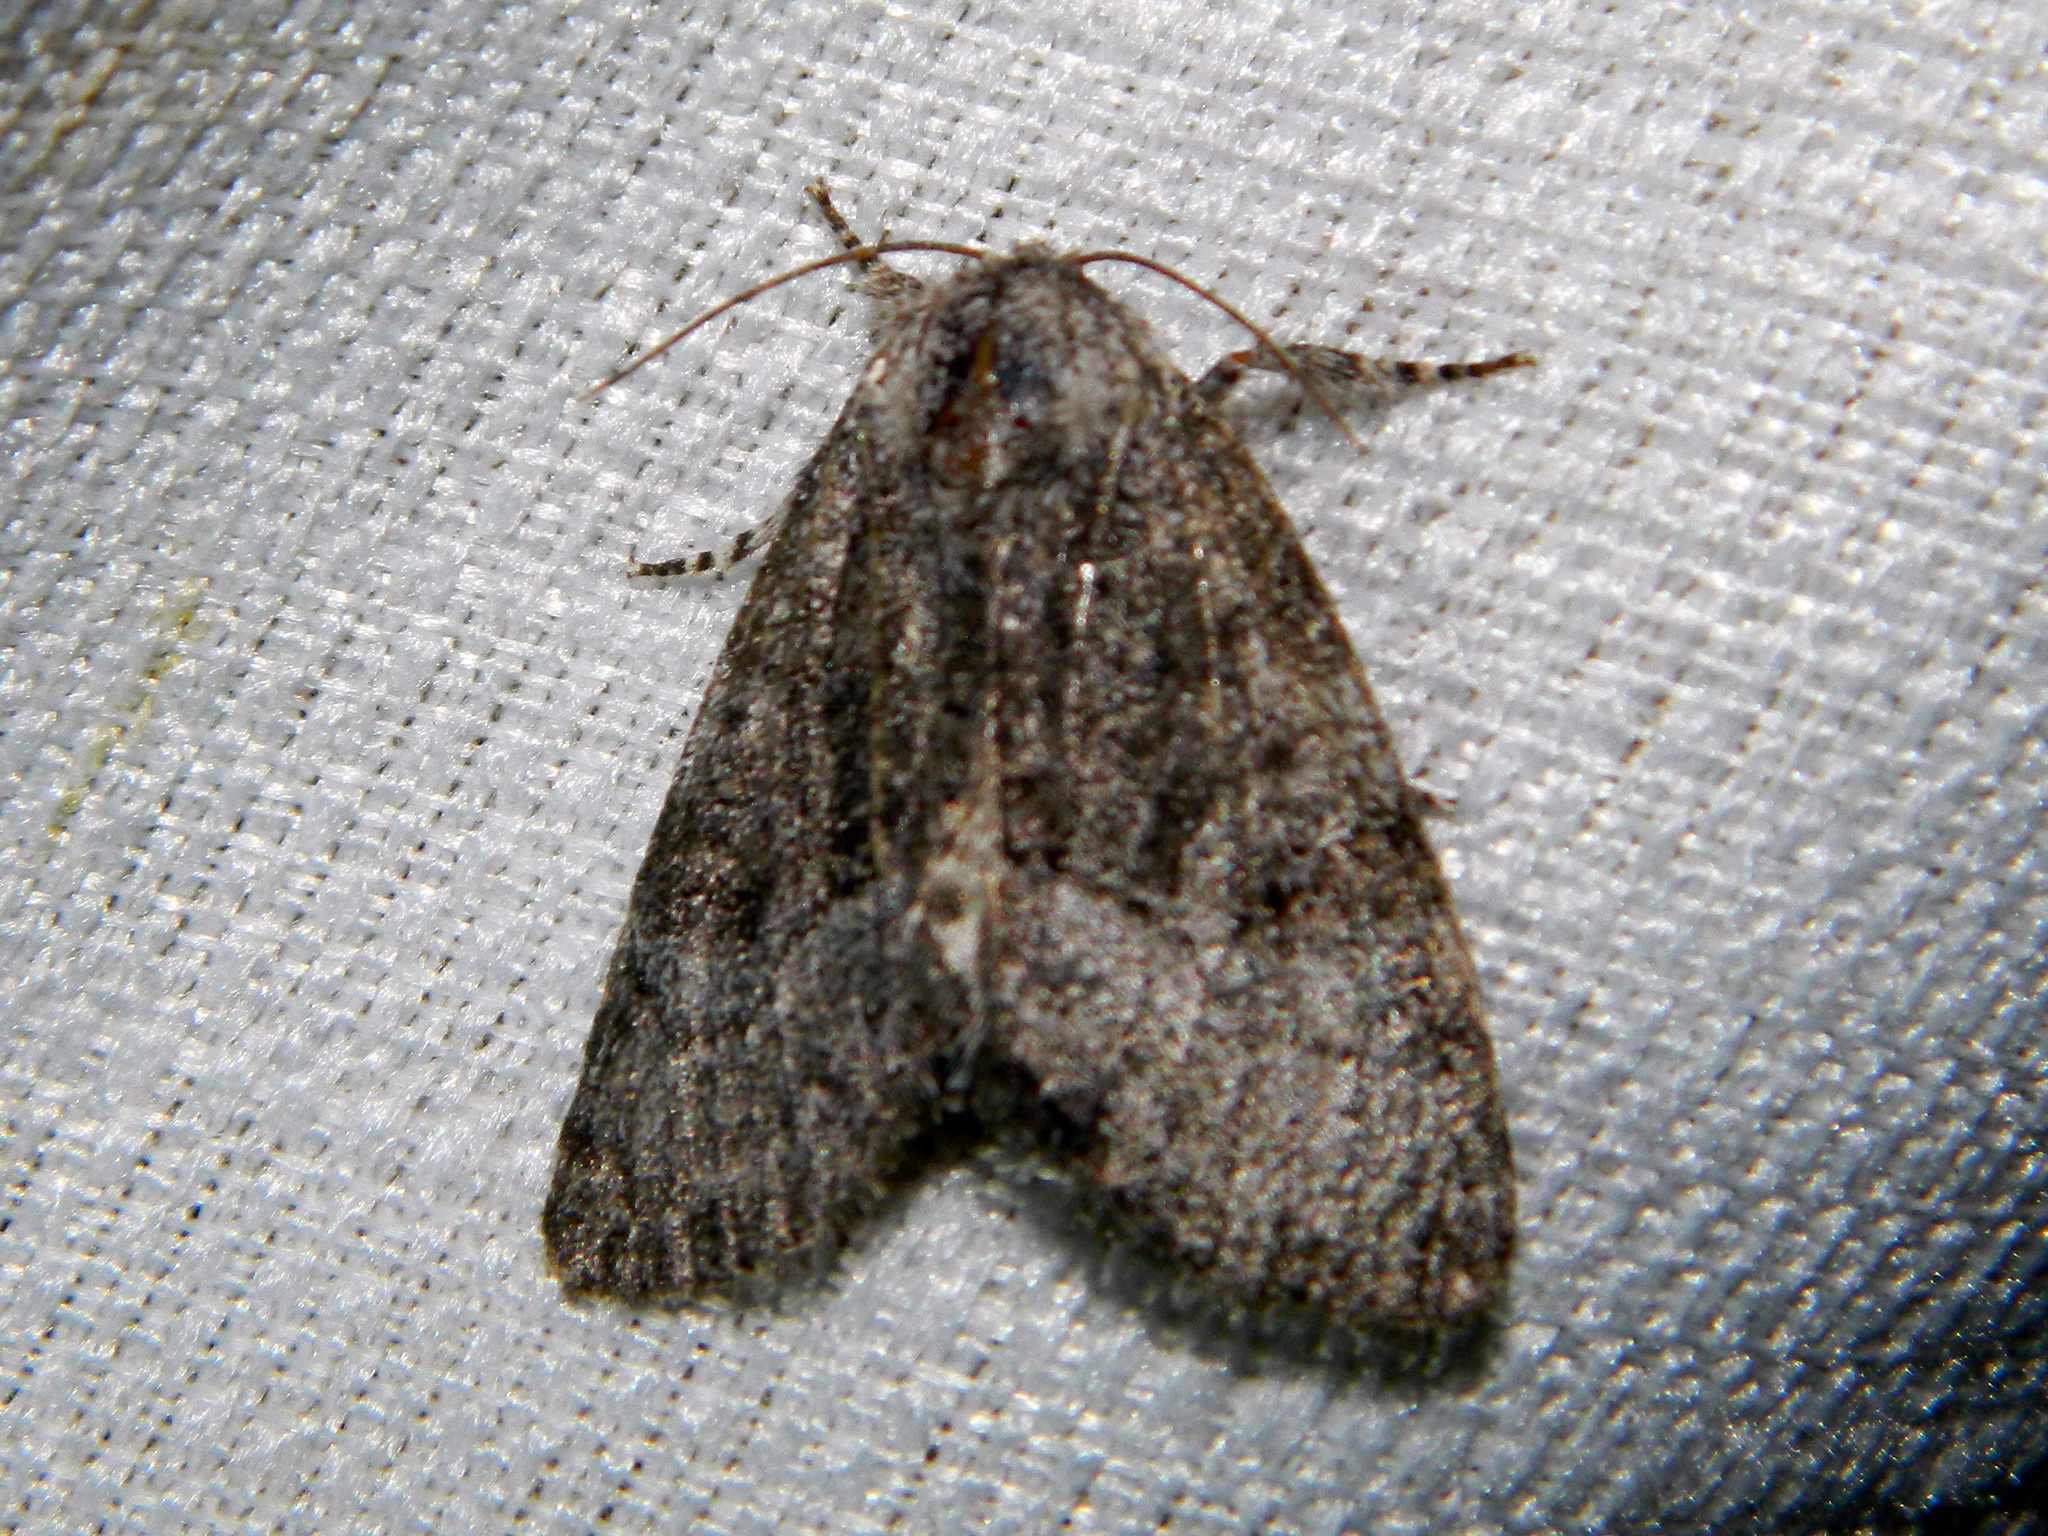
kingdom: Animalia
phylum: Arthropoda
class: Insecta
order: Lepidoptera
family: Noctuidae
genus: Raphia
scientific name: Raphia frater
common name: Brother
